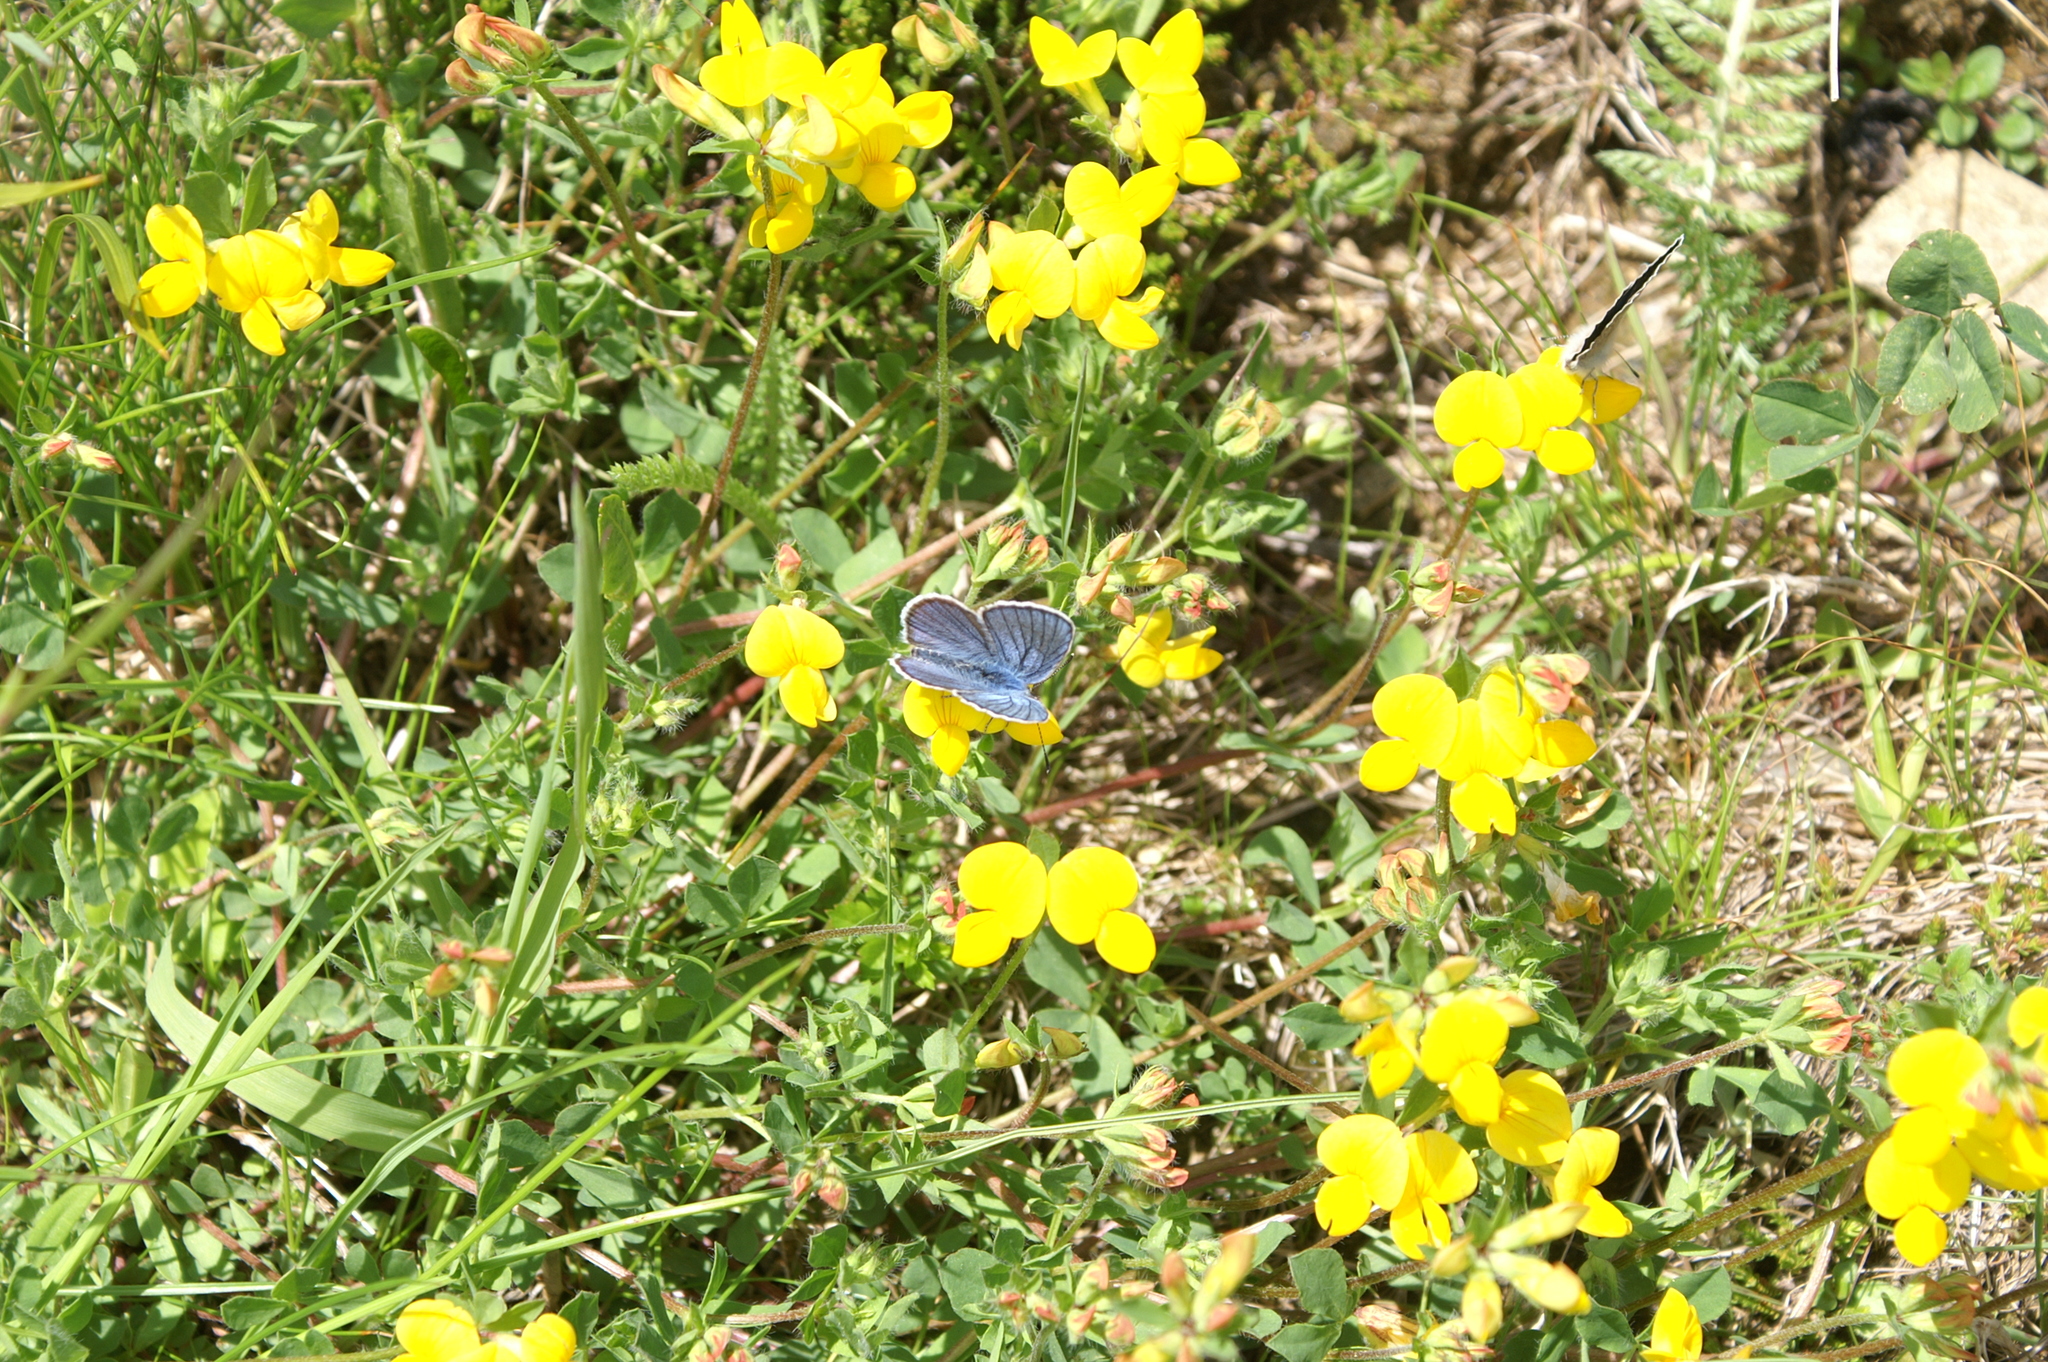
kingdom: Plantae
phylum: Tracheophyta
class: Magnoliopsida
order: Fabales
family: Fabaceae
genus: Lotus
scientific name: Lotus corniculatus
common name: Common bird's-foot-trefoil
